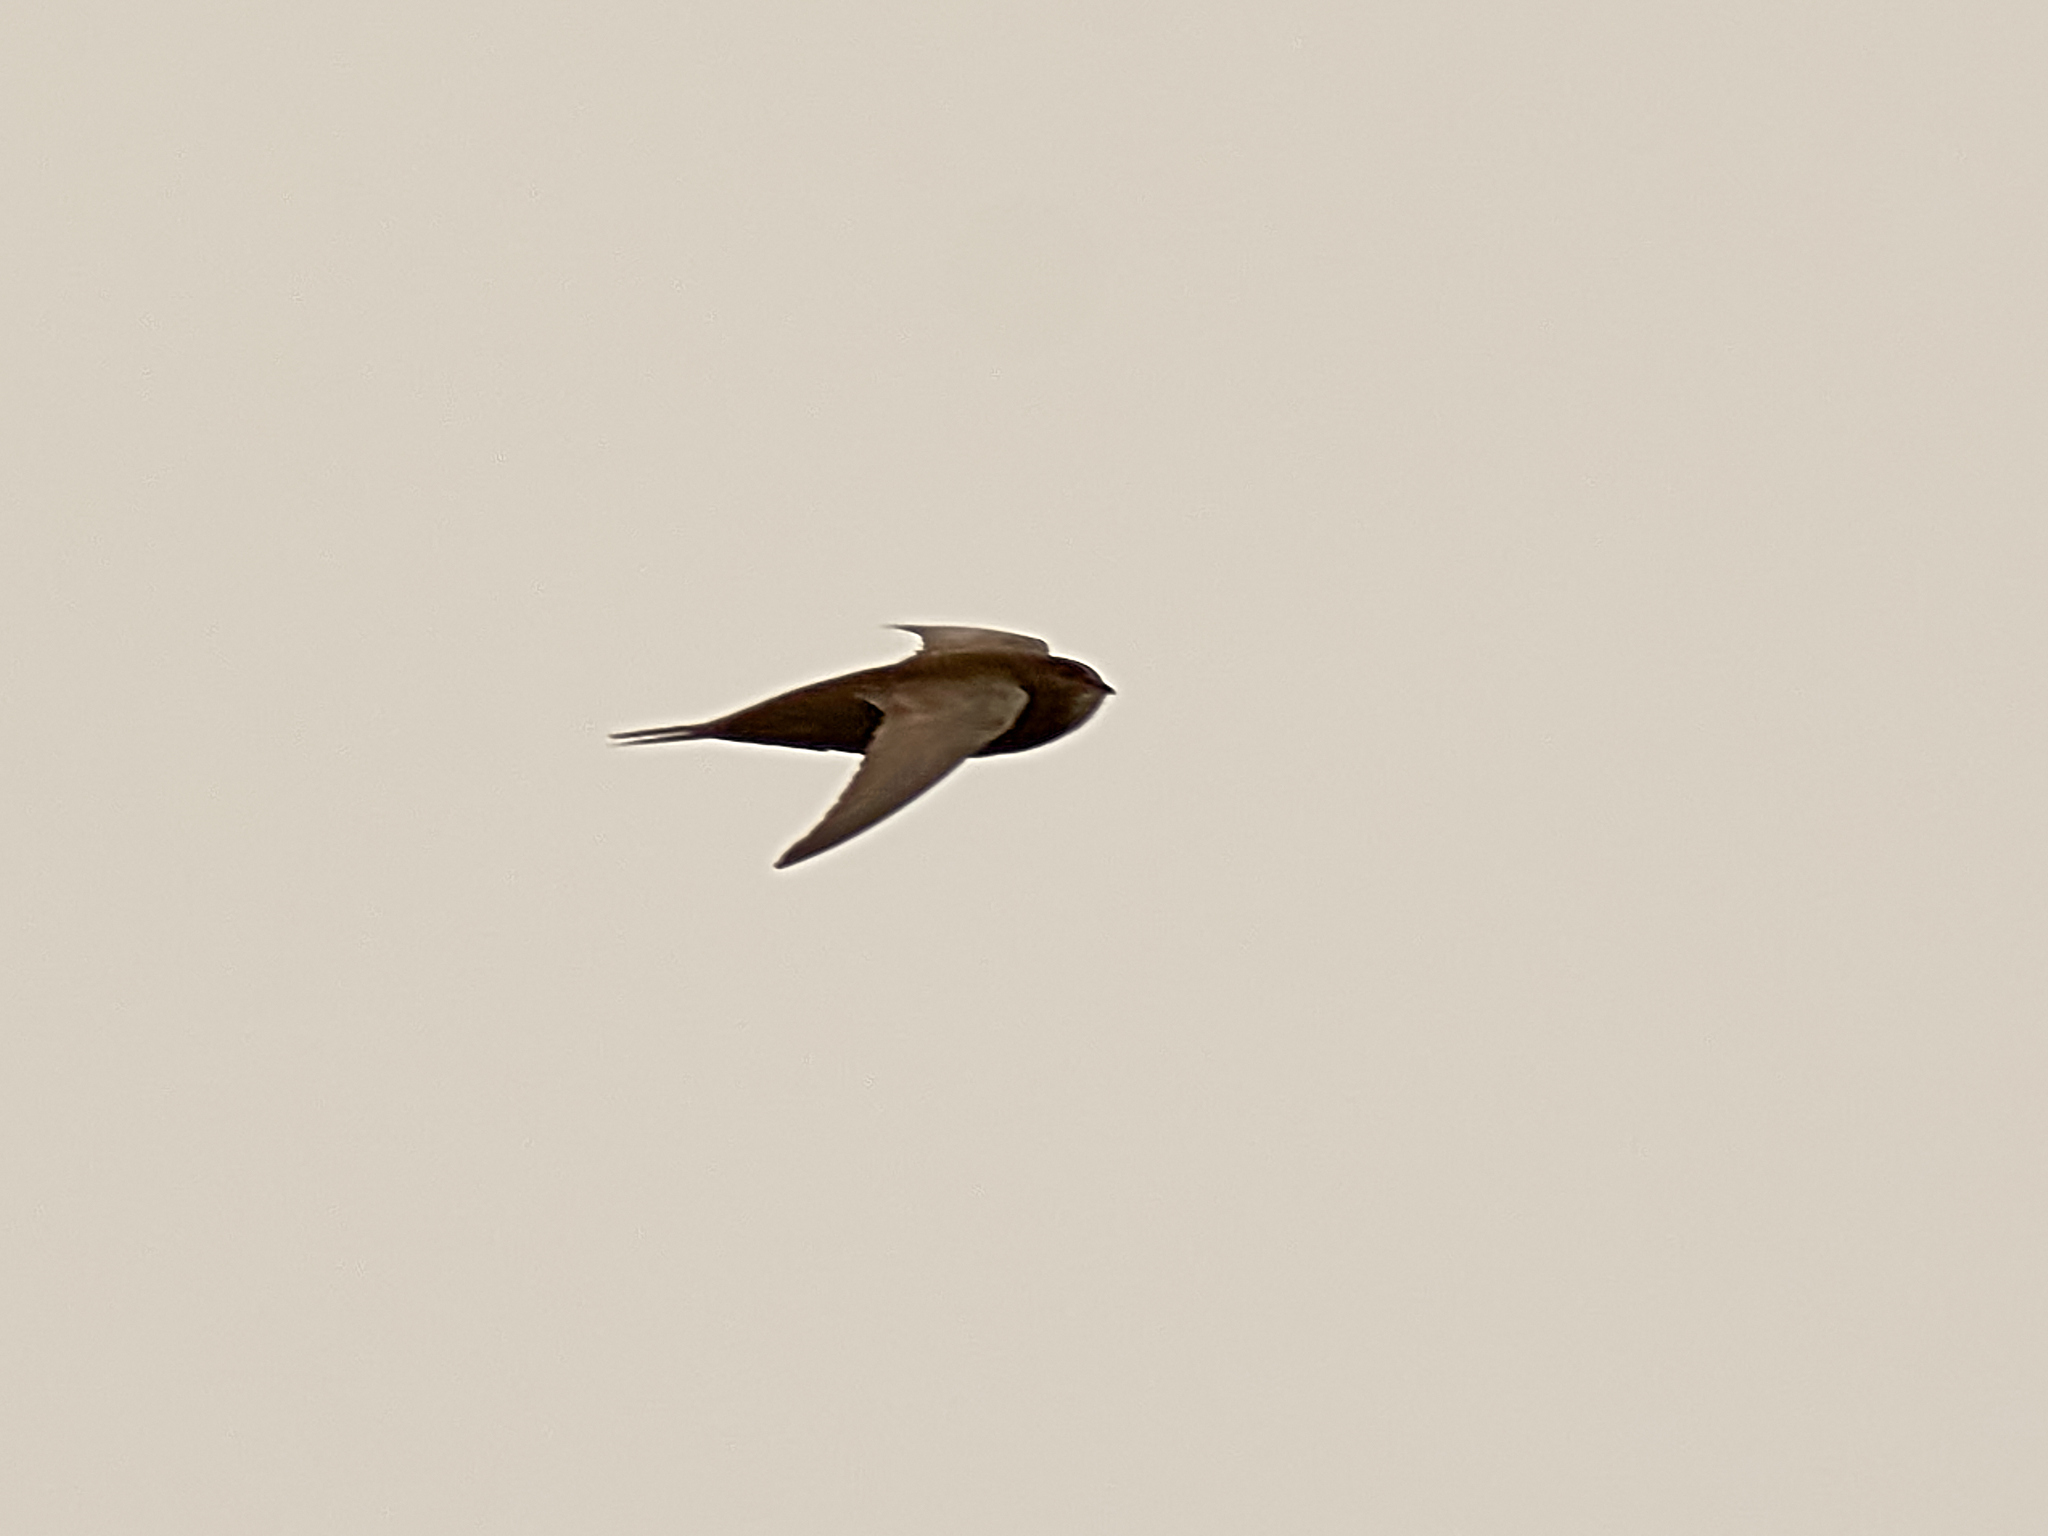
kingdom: Animalia
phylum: Chordata
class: Aves
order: Apodiformes
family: Apodidae
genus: Apus
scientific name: Apus apus
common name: Common swift
